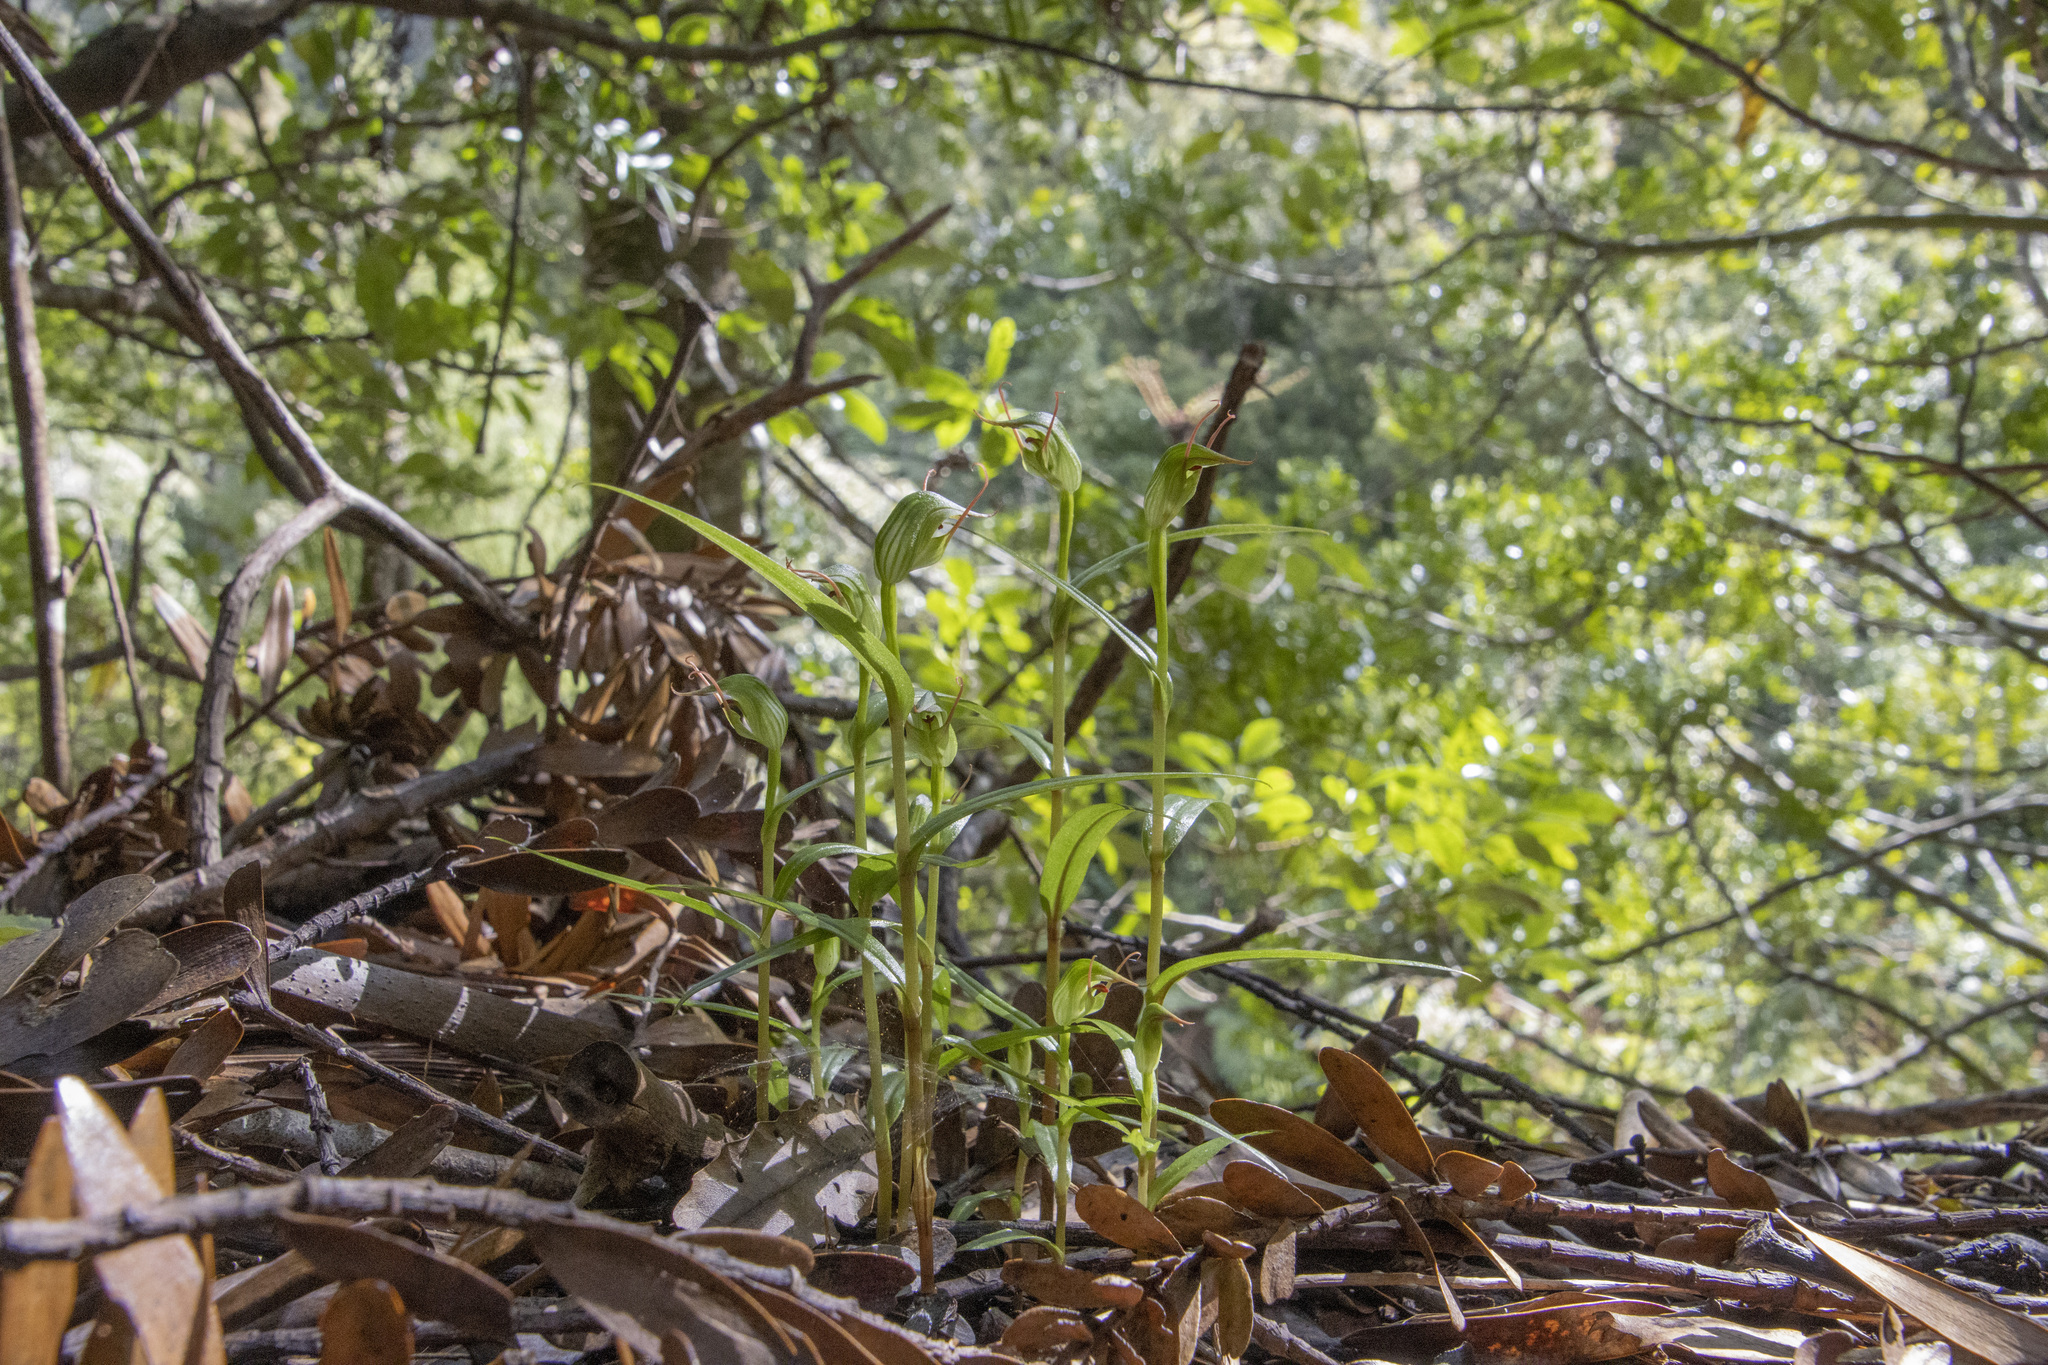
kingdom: Plantae
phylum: Tracheophyta
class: Liliopsida
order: Asparagales
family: Orchidaceae
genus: Pterostylis
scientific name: Pterostylis agathicola
